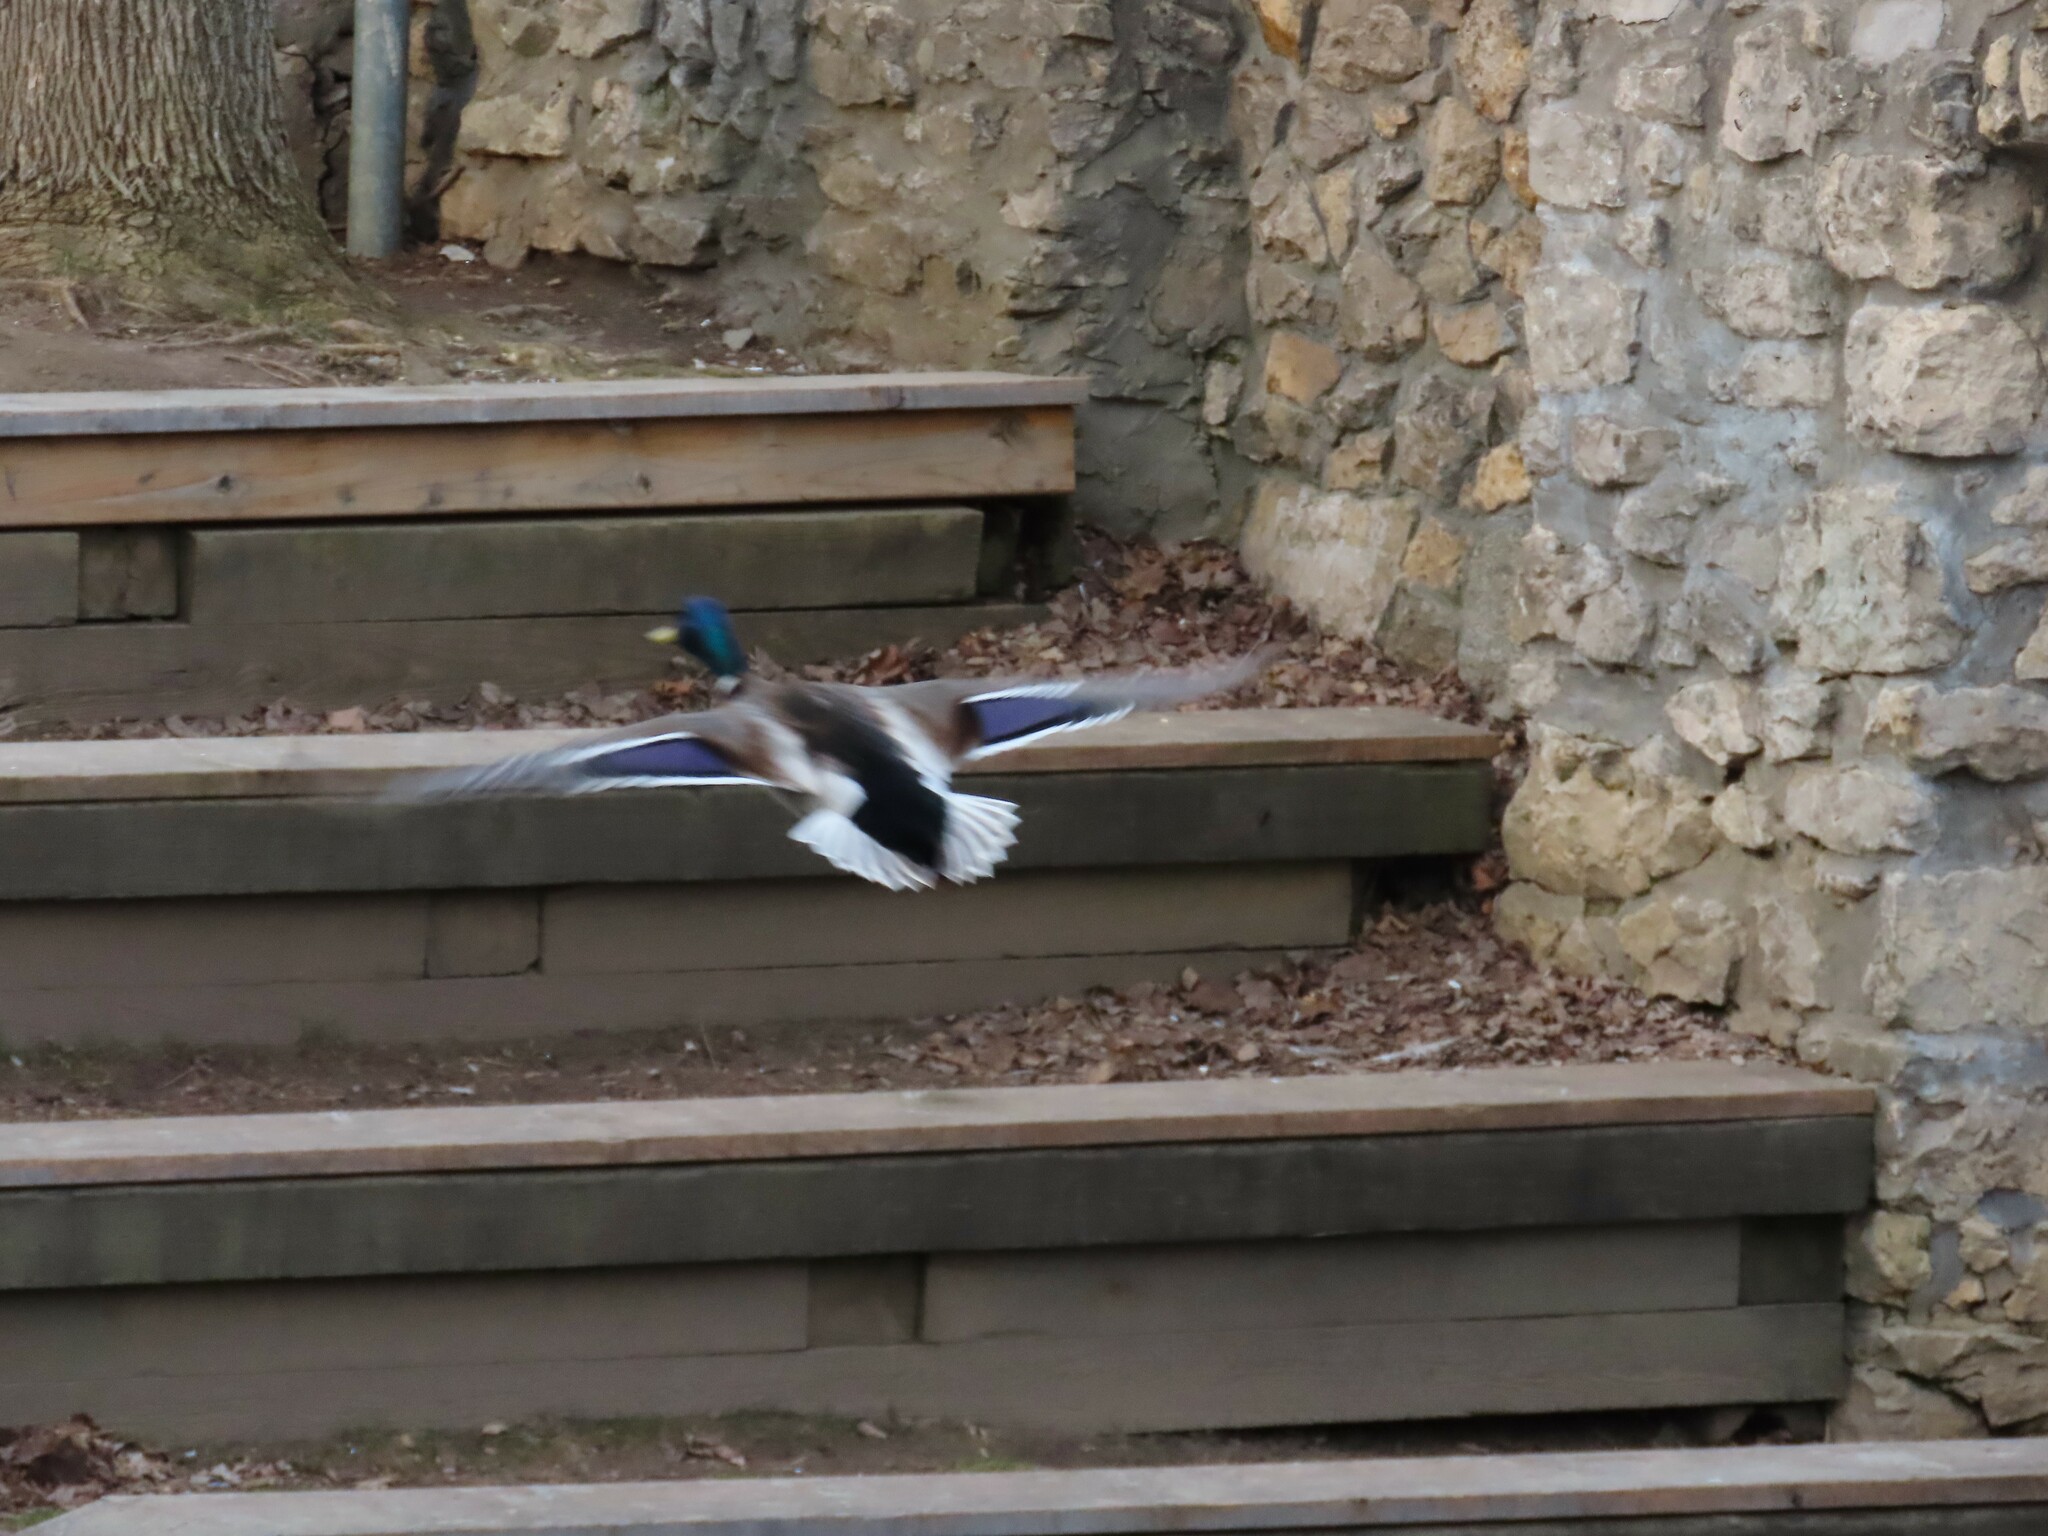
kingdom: Animalia
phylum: Chordata
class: Aves
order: Anseriformes
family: Anatidae
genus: Anas
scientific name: Anas platyrhynchos
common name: Mallard
